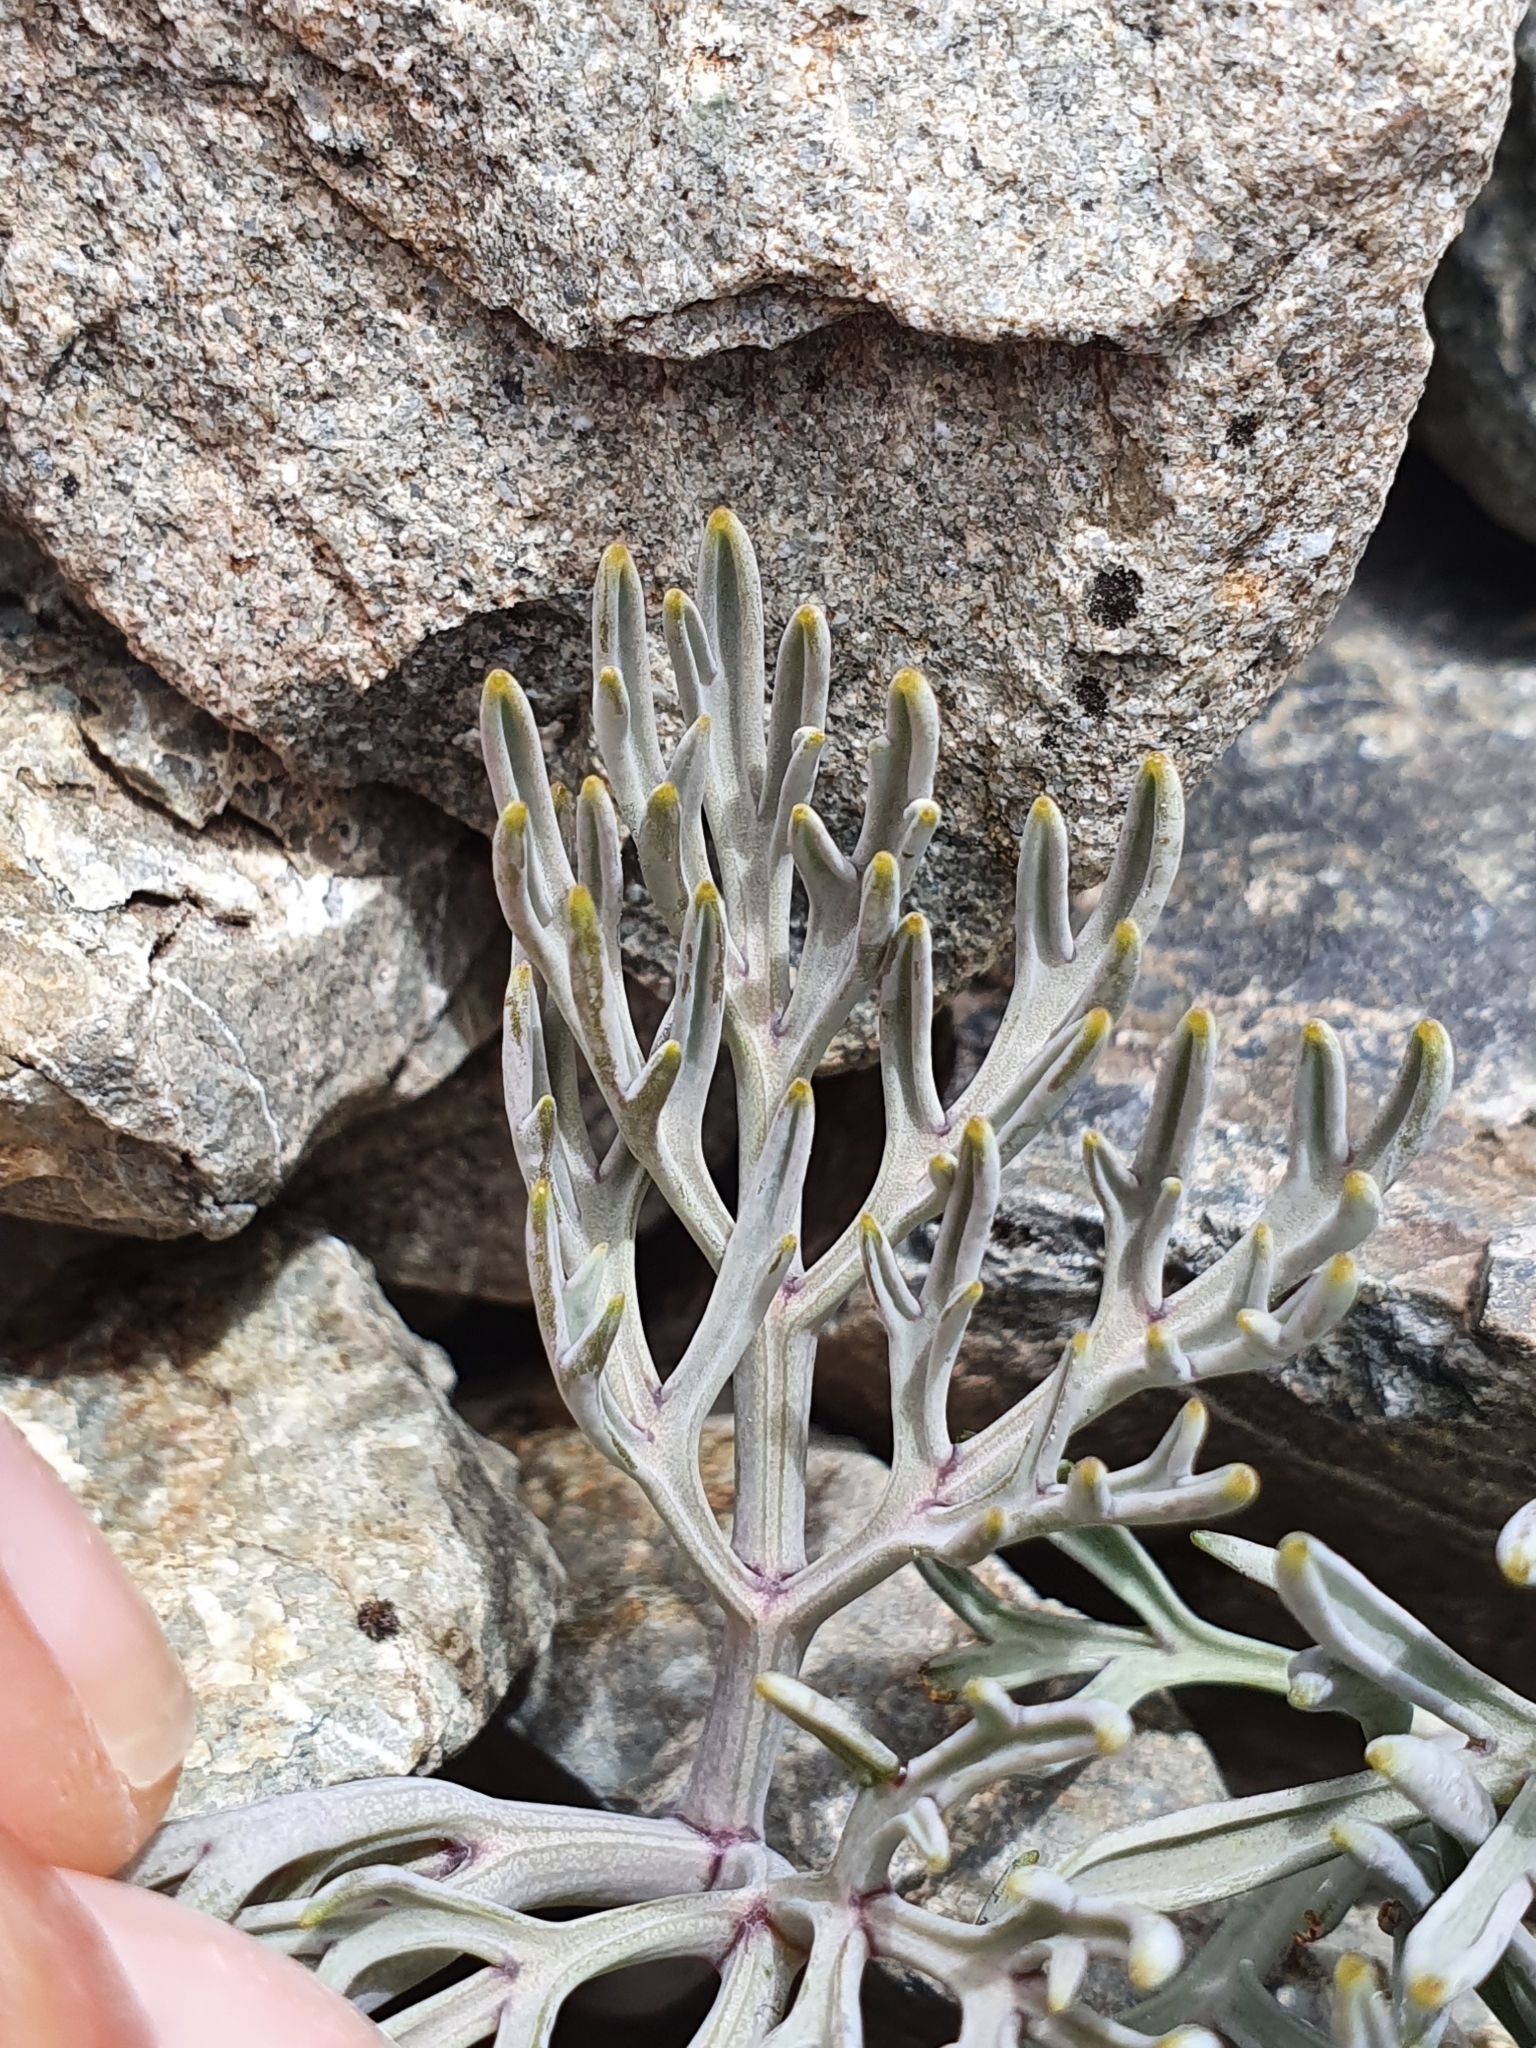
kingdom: Plantae
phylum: Tracheophyta
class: Magnoliopsida
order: Apiales
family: Apiaceae
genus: Lignocarpa
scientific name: Lignocarpa carnosula
